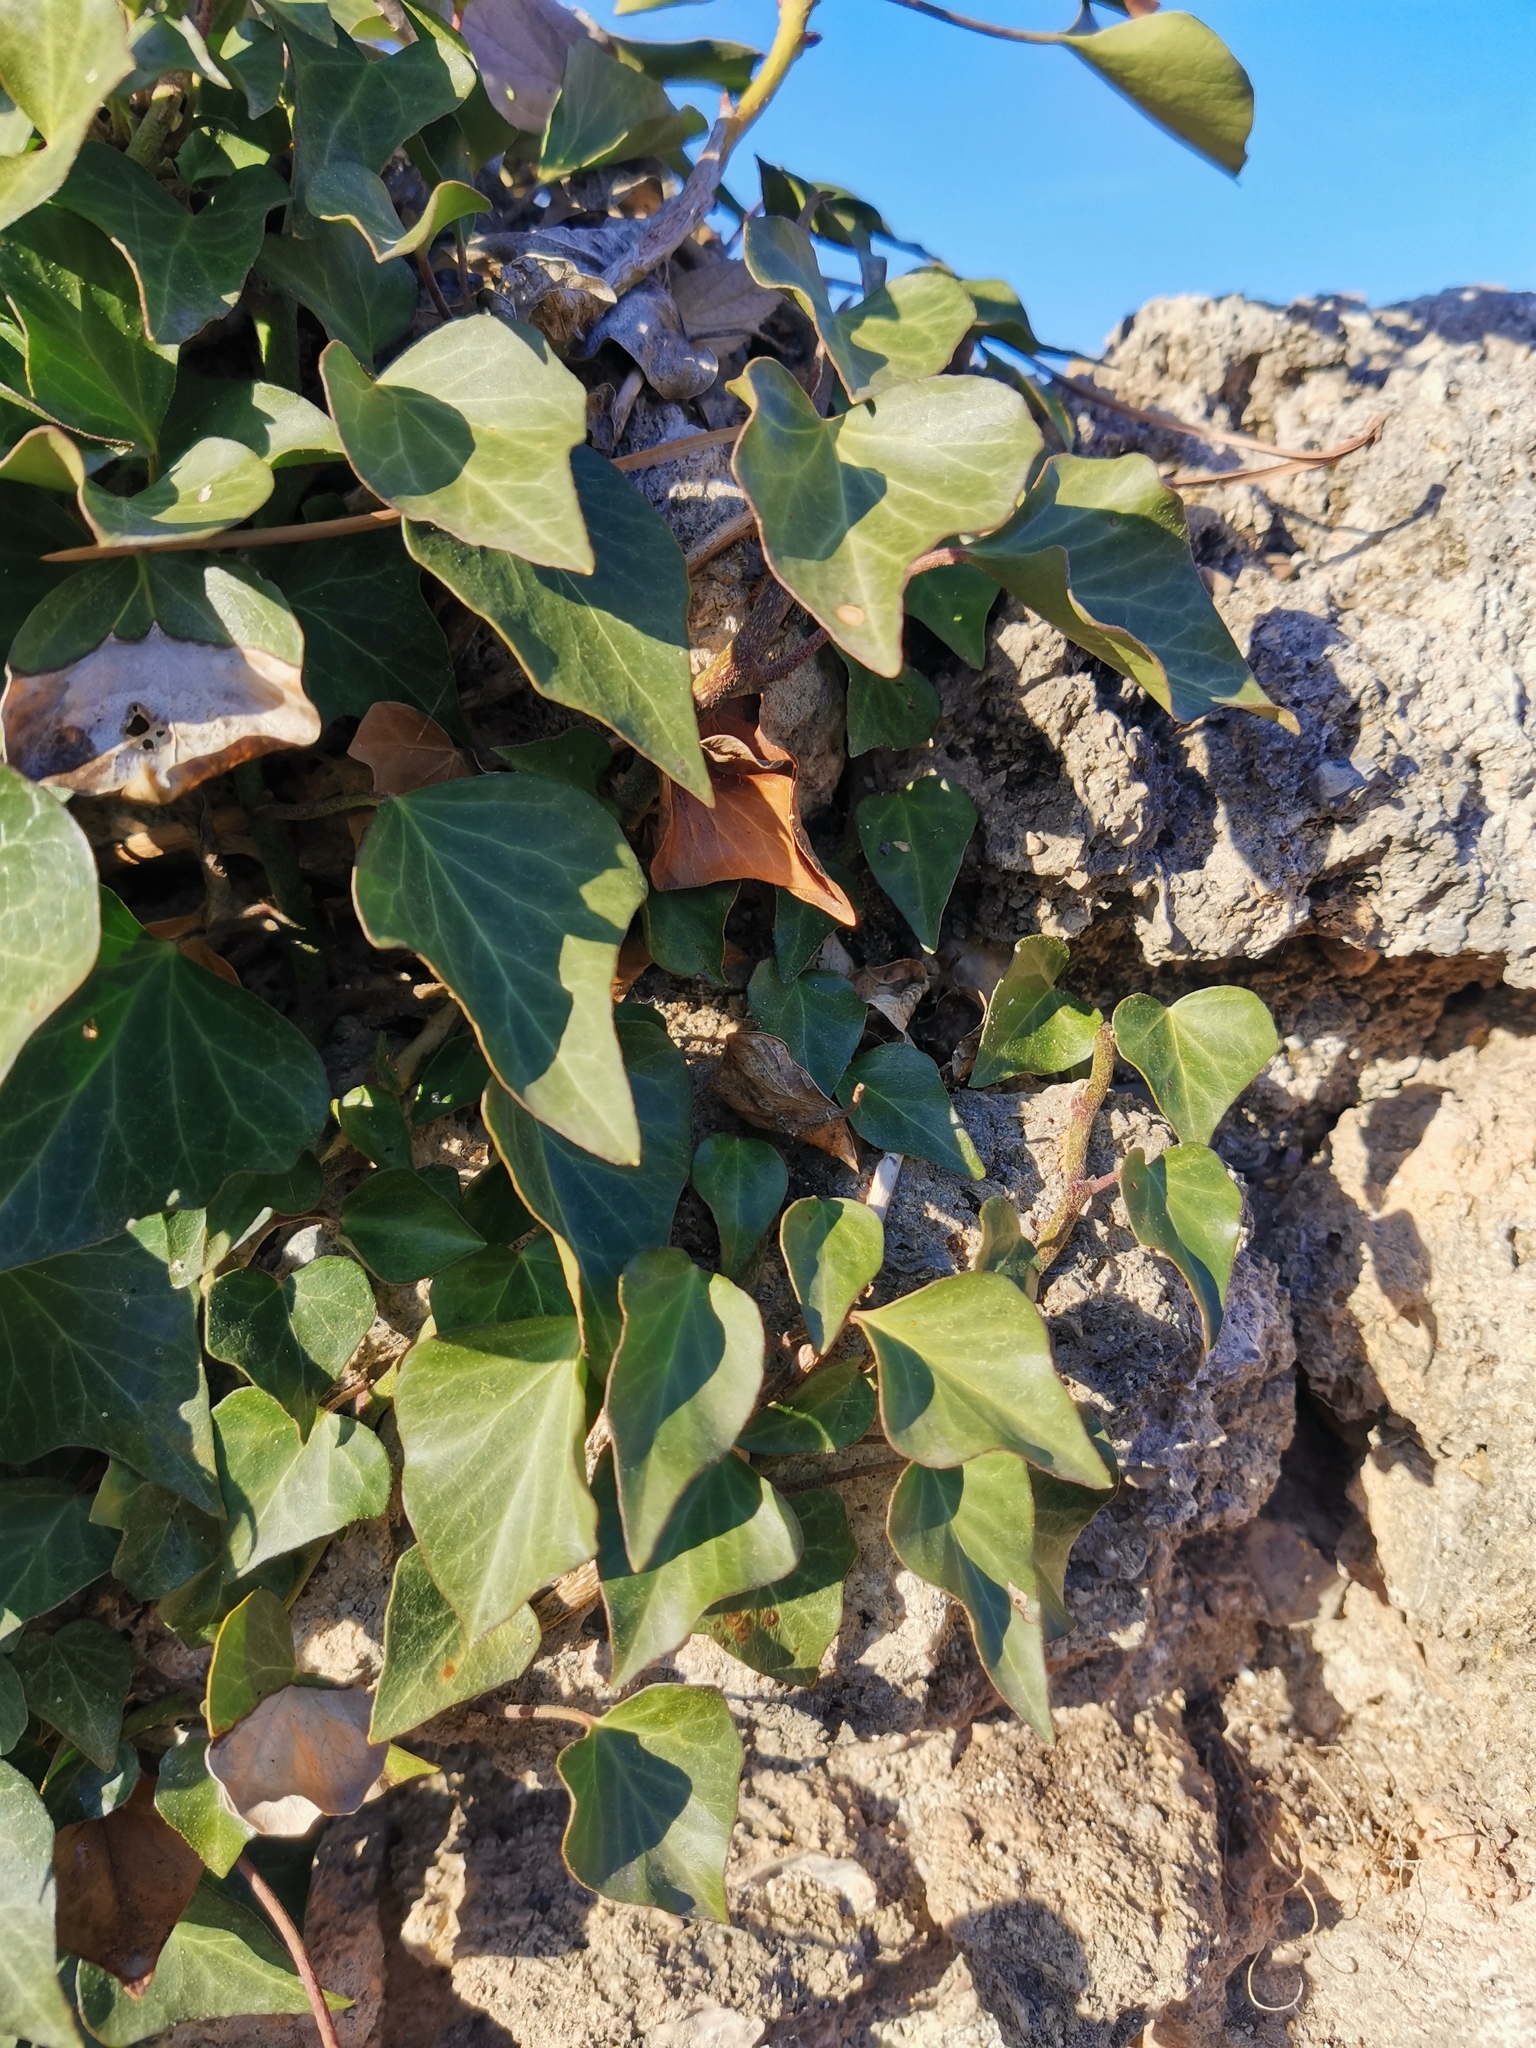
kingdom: Plantae
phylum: Tracheophyta
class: Magnoliopsida
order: Apiales
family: Araliaceae
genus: Hedera
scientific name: Hedera helix
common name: Ivy
